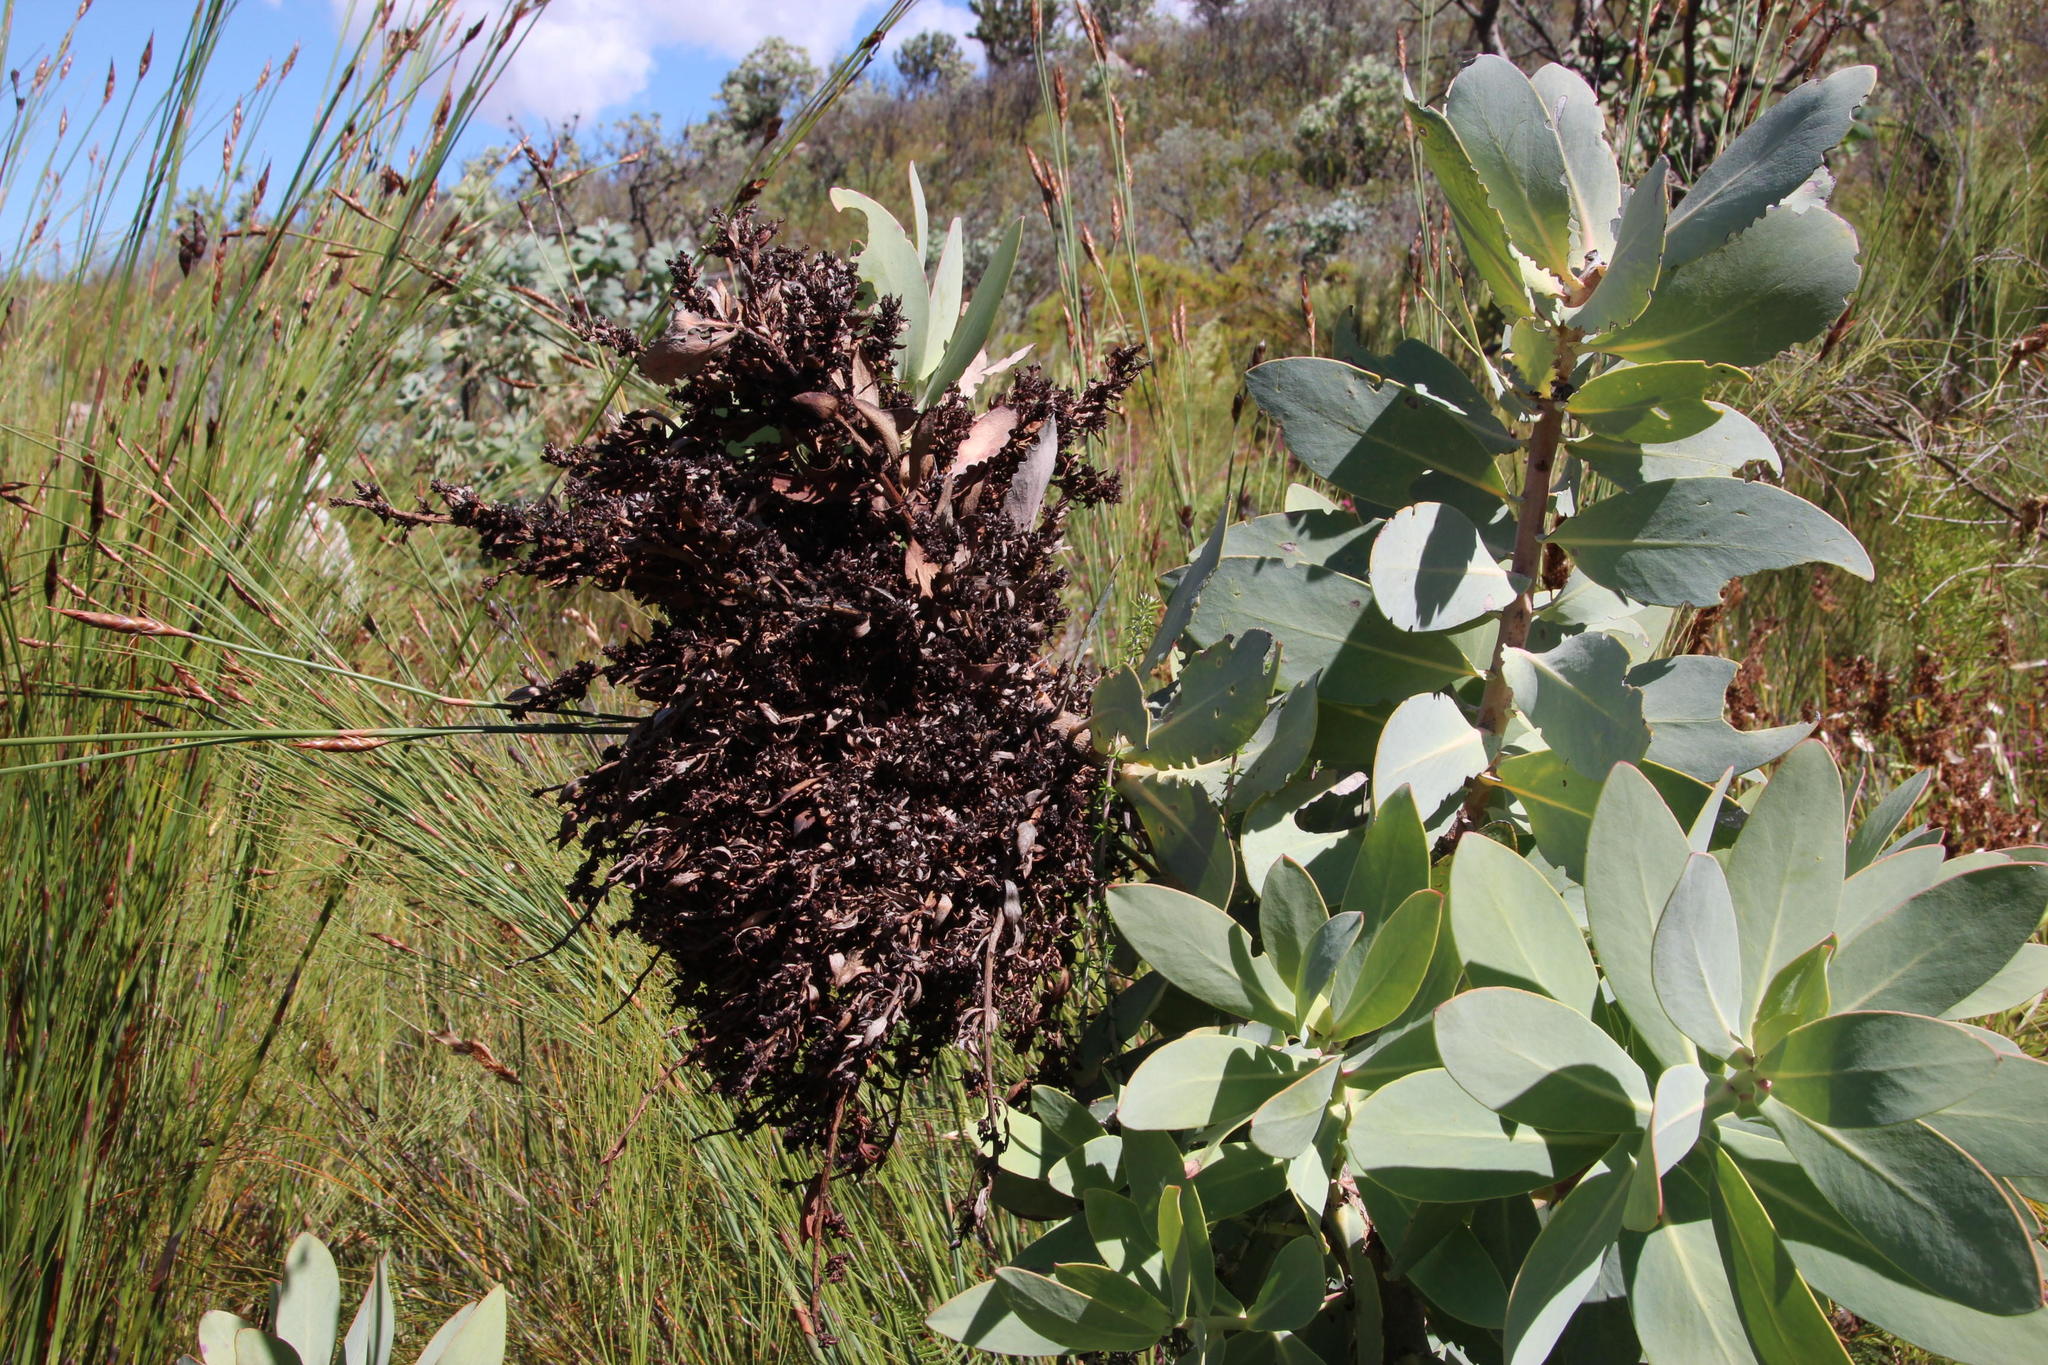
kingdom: Plantae
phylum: Tracheophyta
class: Magnoliopsida
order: Proteales
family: Proteaceae
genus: Protea
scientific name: Protea nitida
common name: Tree protea
